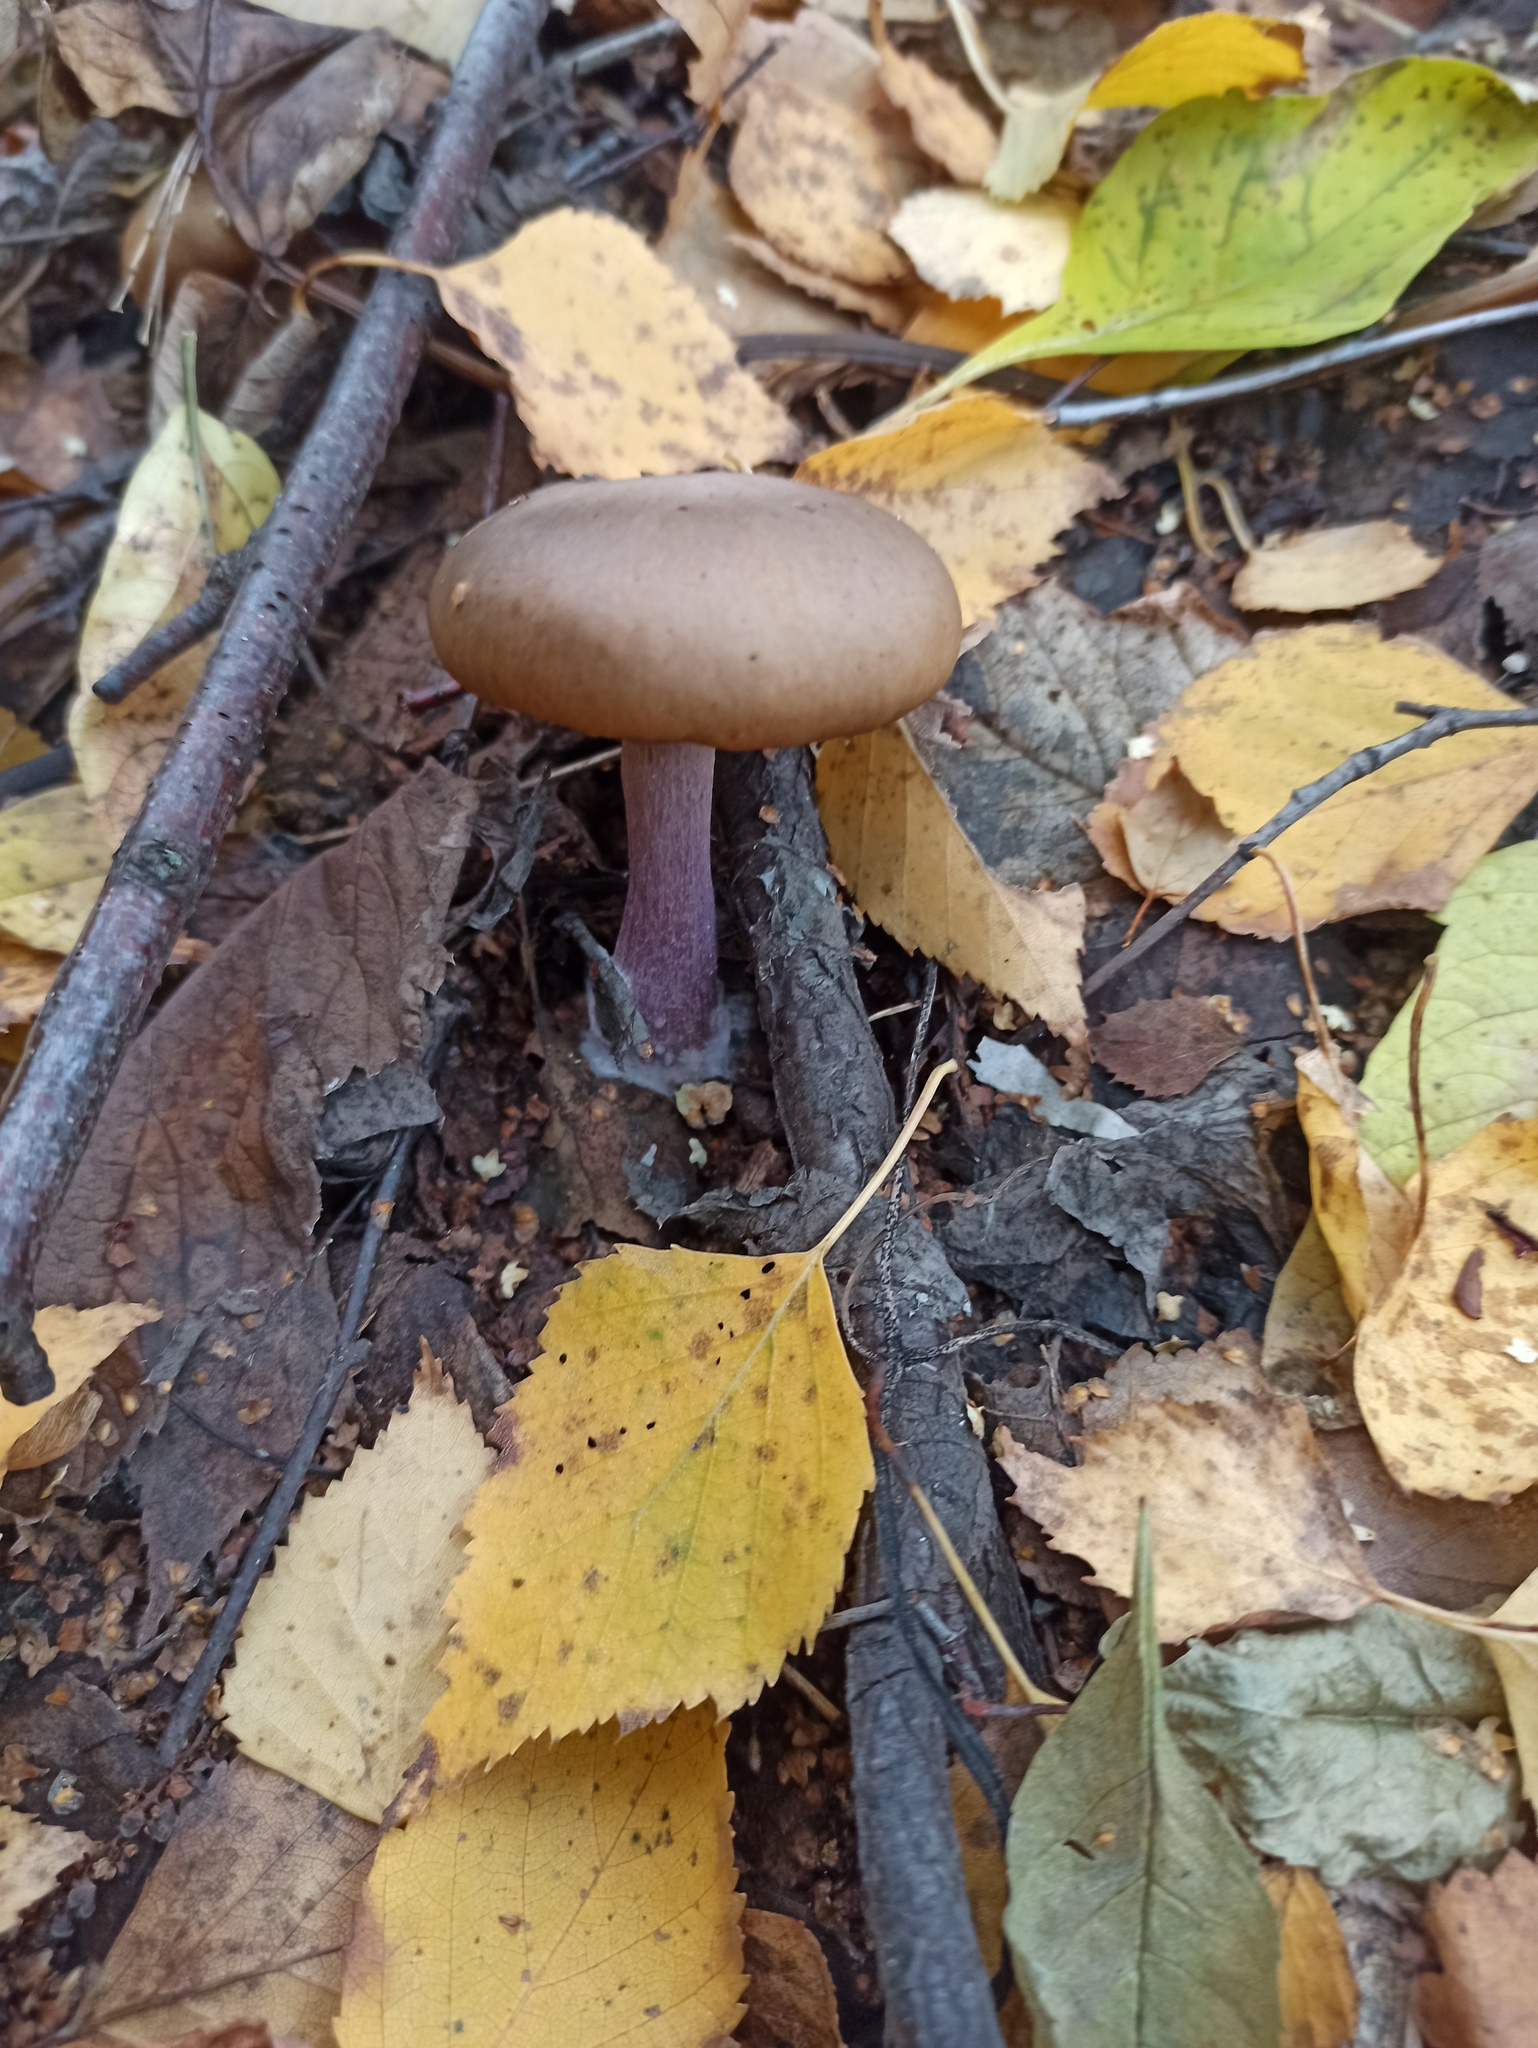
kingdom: Fungi
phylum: Basidiomycota
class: Agaricomycetes
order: Agaricales
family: Tricholomataceae
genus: Collybia
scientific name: Collybia
